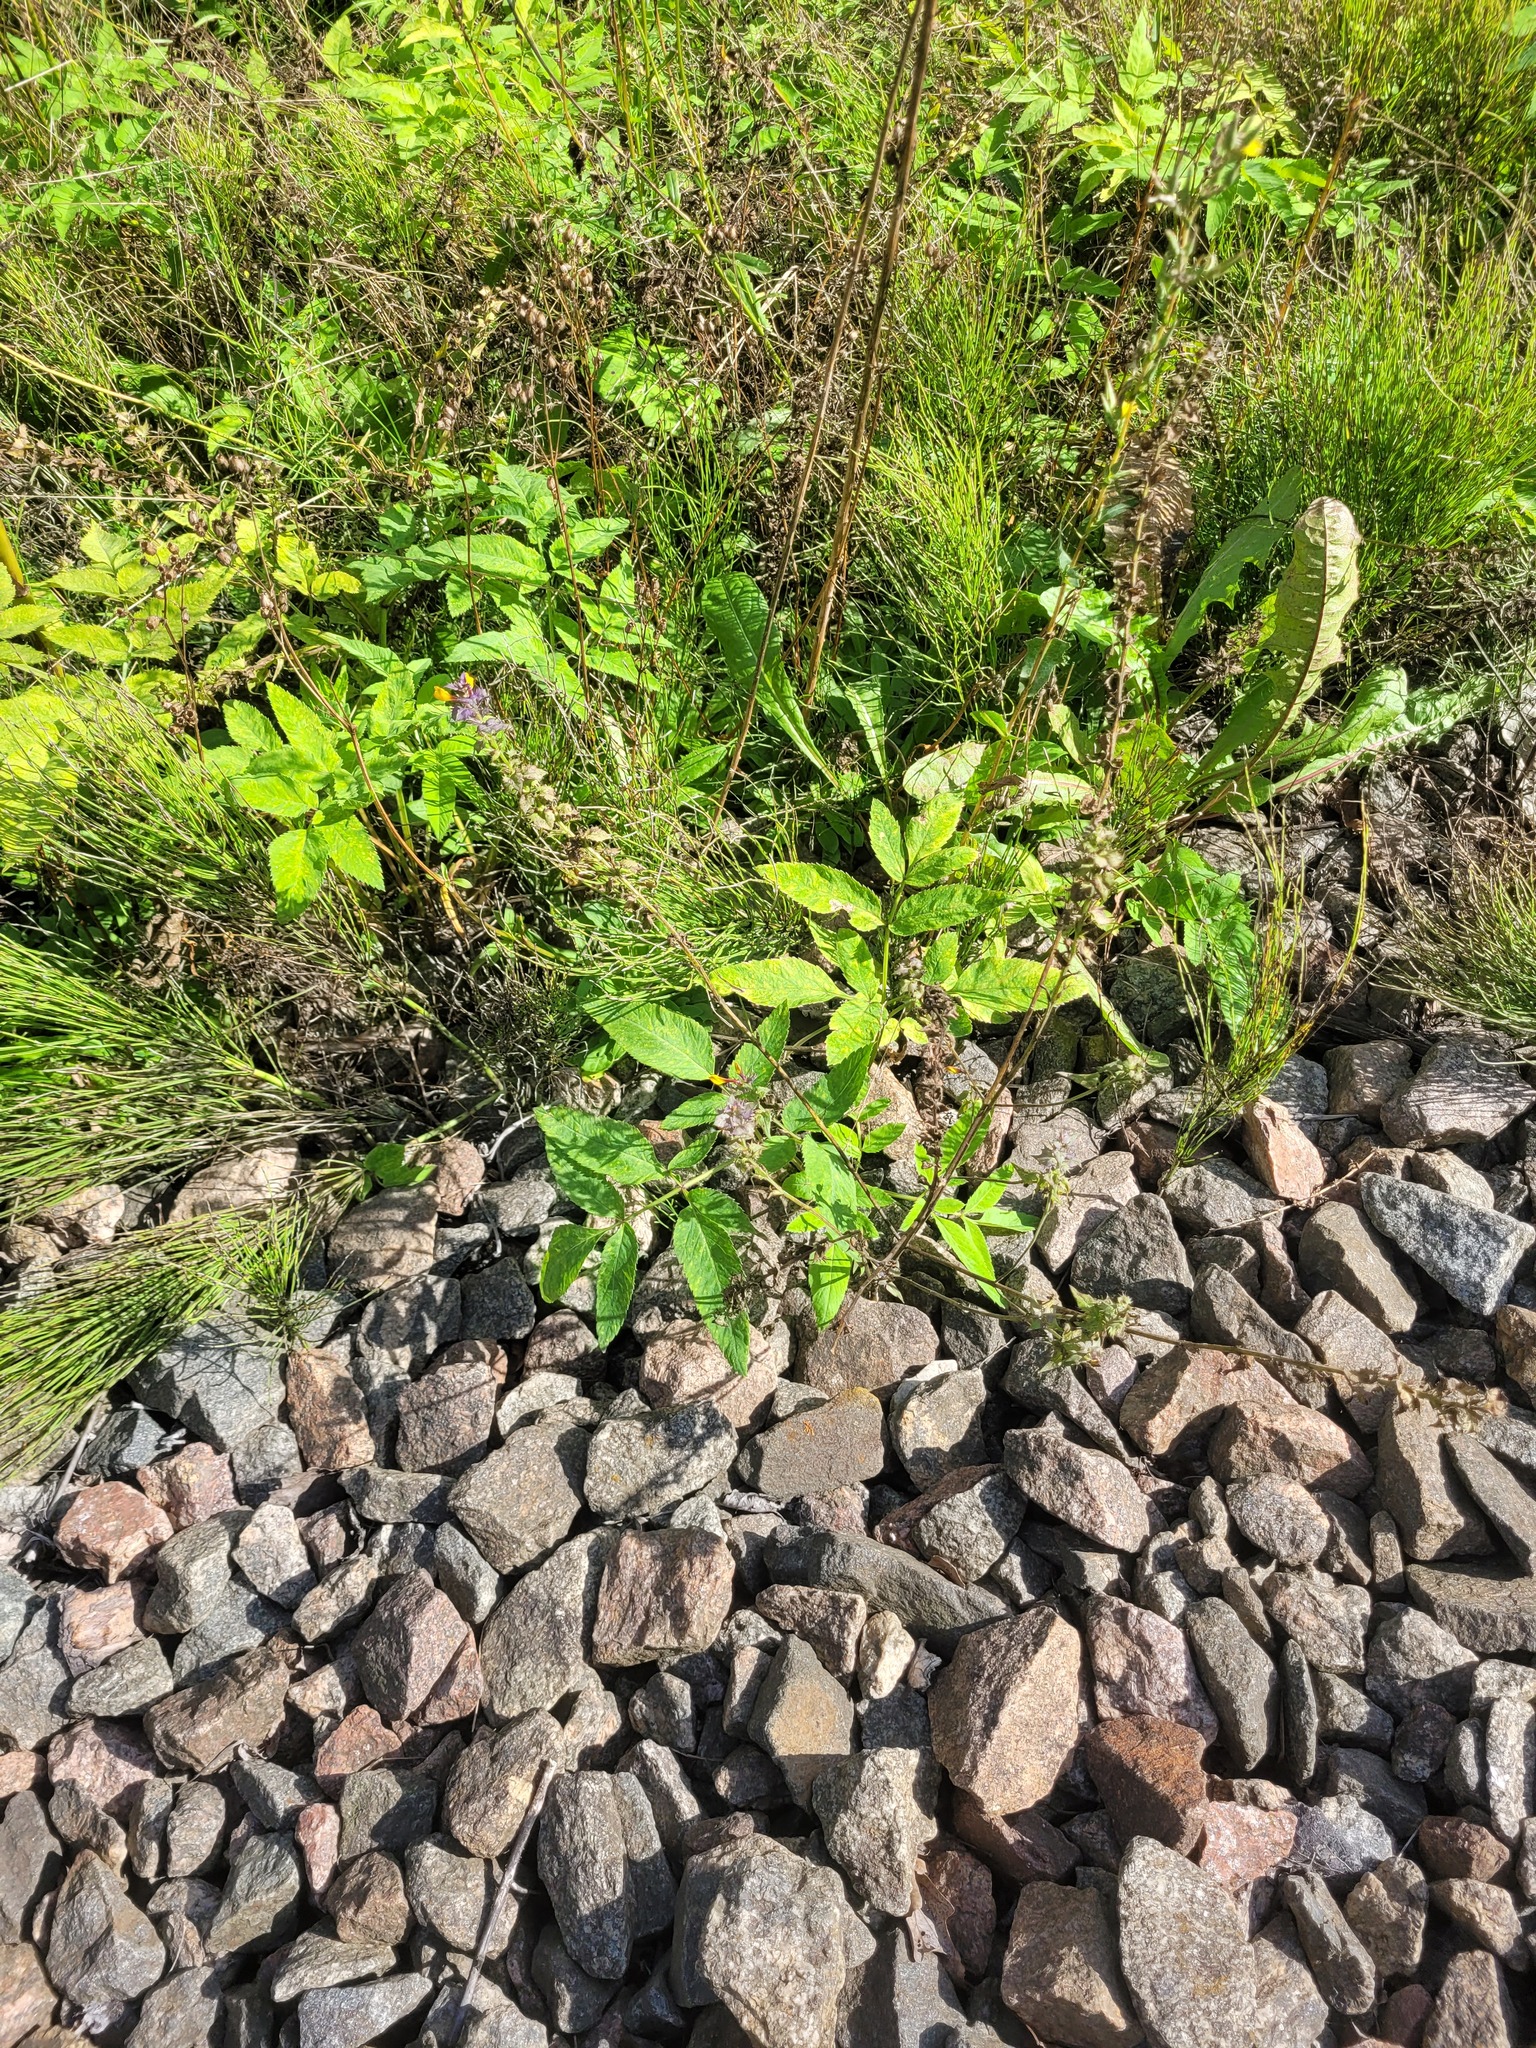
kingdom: Plantae
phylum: Tracheophyta
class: Magnoliopsida
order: Lamiales
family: Orobanchaceae
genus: Melampyrum
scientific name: Melampyrum nemorosum
